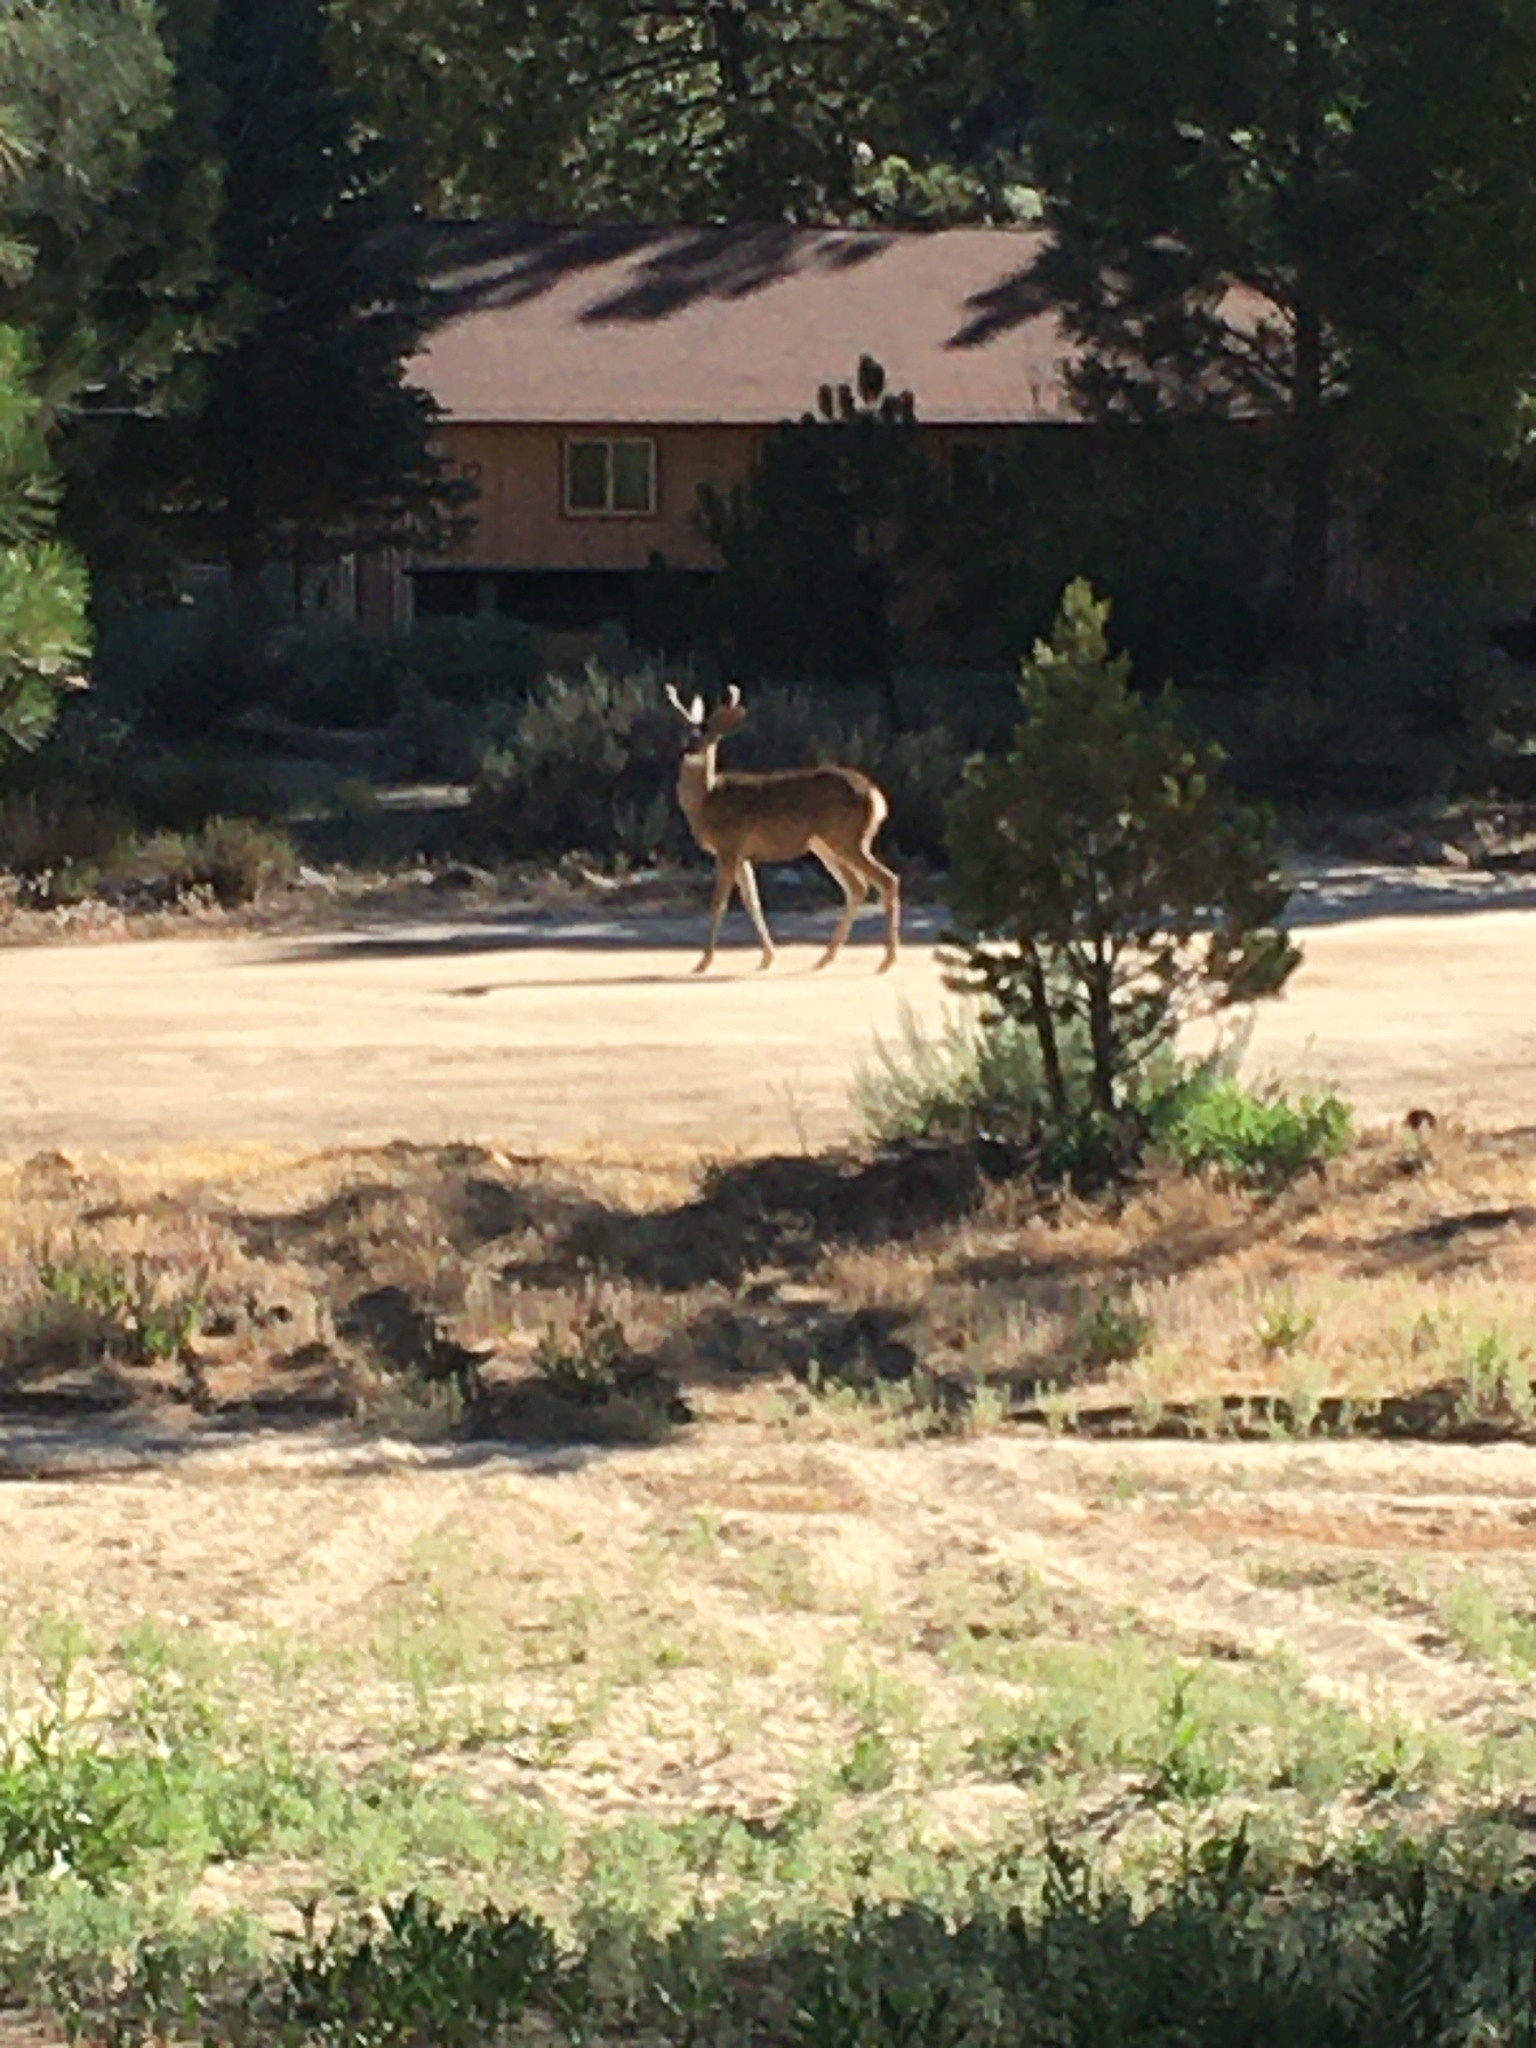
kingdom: Animalia
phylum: Chordata
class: Mammalia
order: Artiodactyla
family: Cervidae
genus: Odocoileus
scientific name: Odocoileus hemionus
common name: Mule deer
